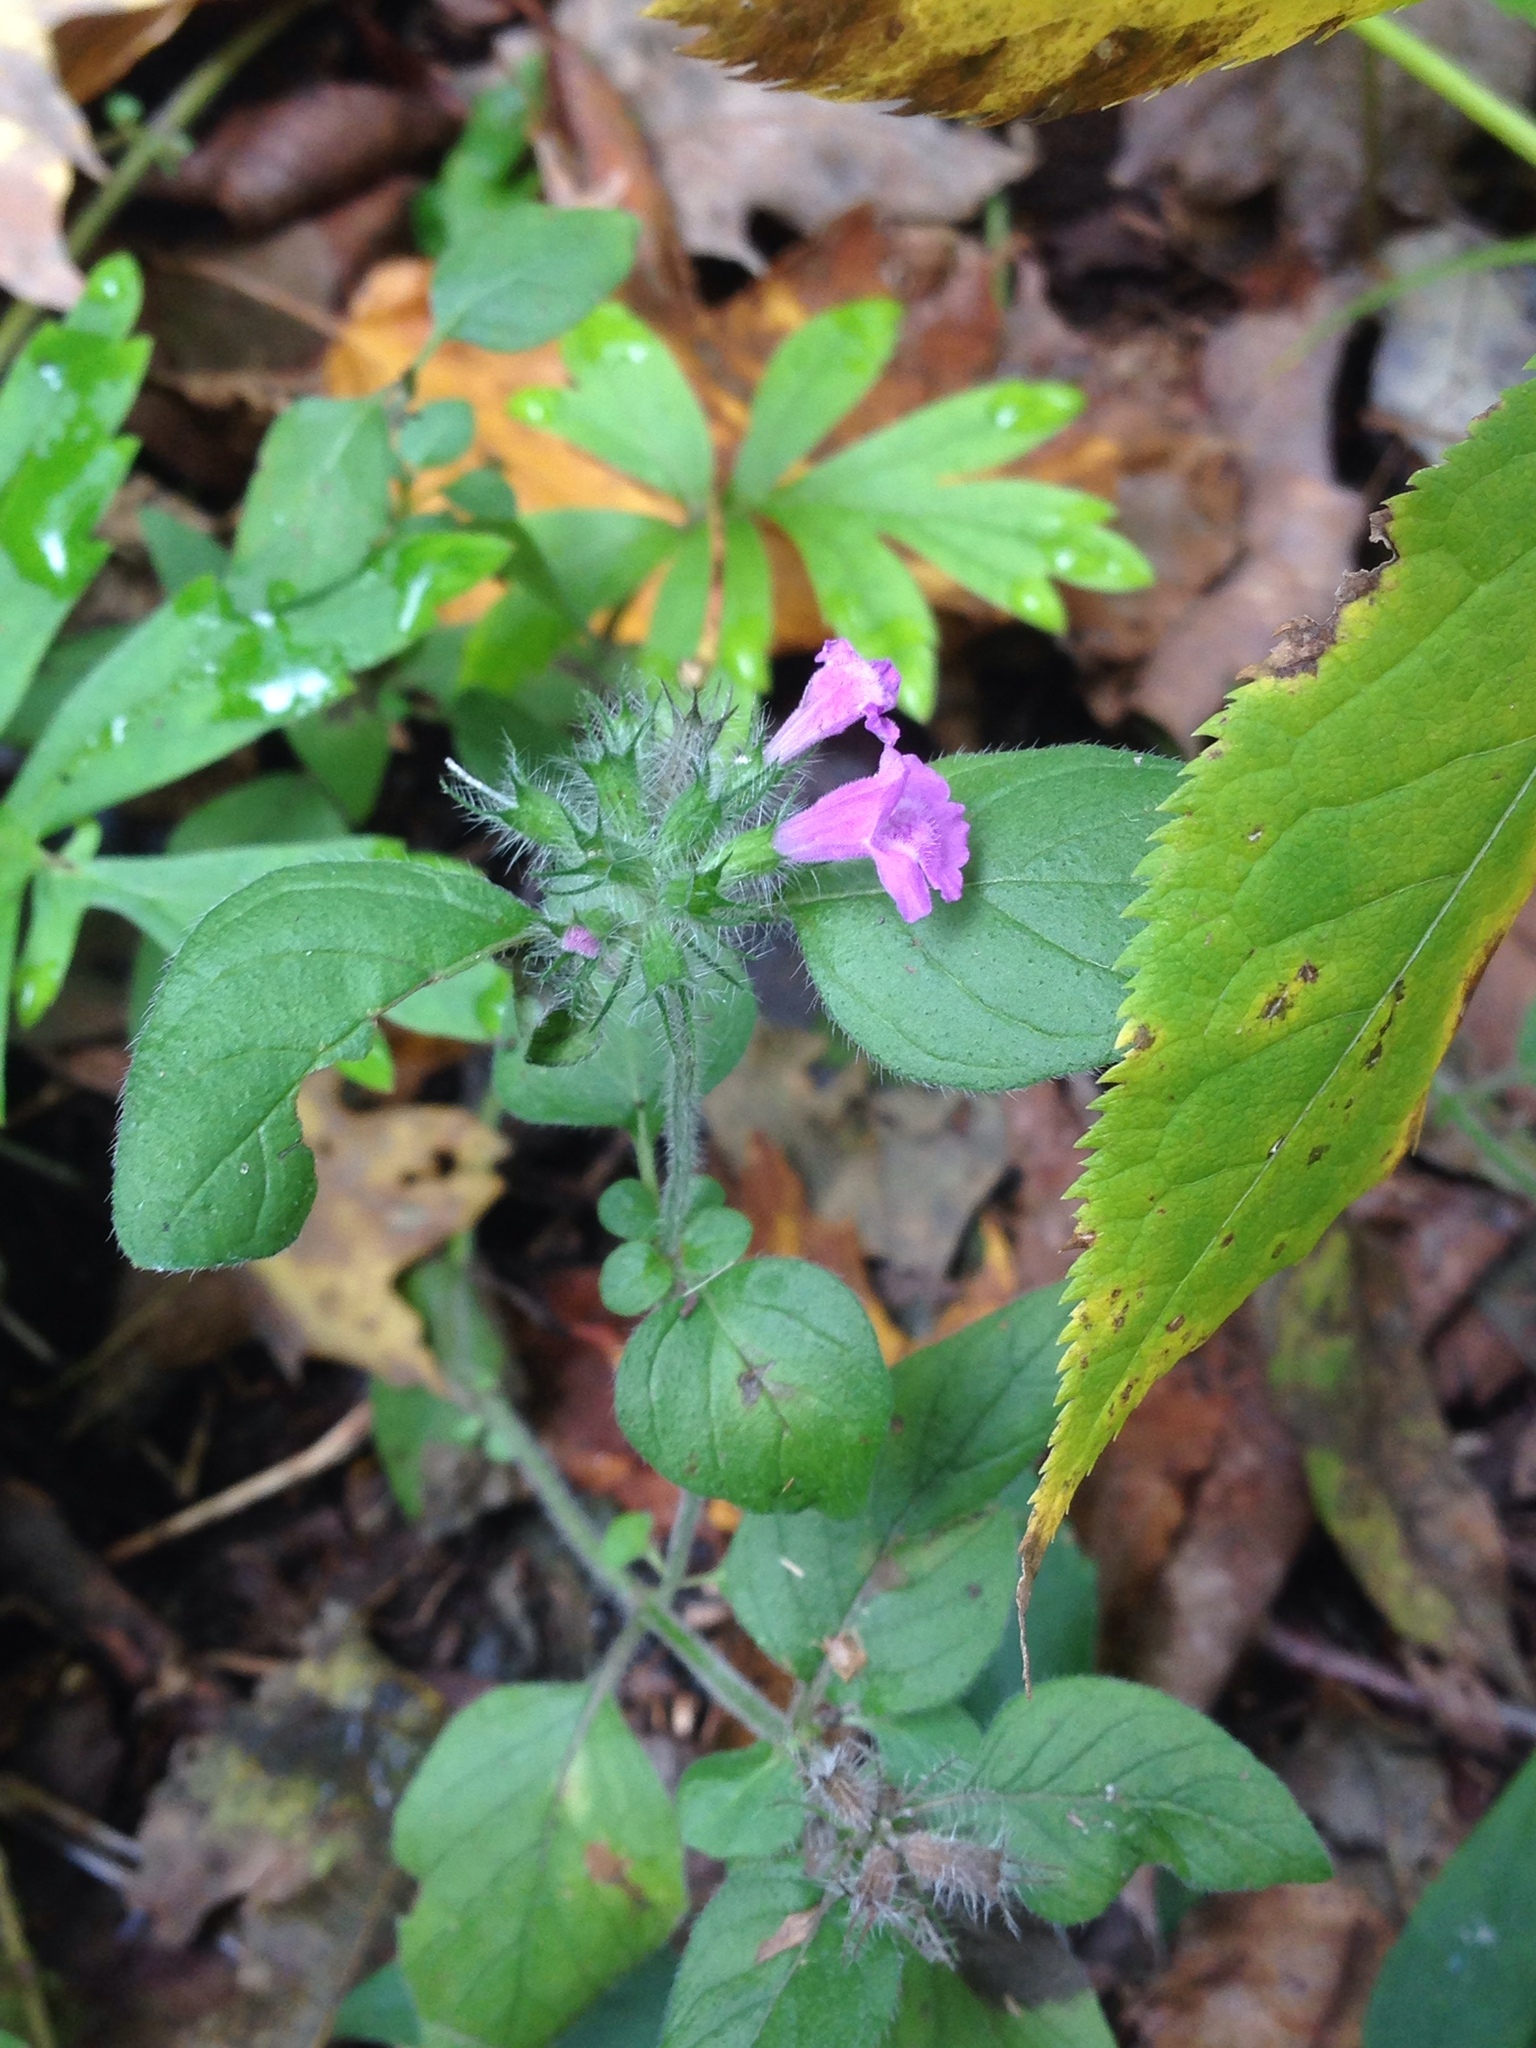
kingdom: Plantae
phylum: Tracheophyta
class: Magnoliopsida
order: Lamiales
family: Lamiaceae
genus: Clinopodium
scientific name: Clinopodium vulgare
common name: Wild basil
